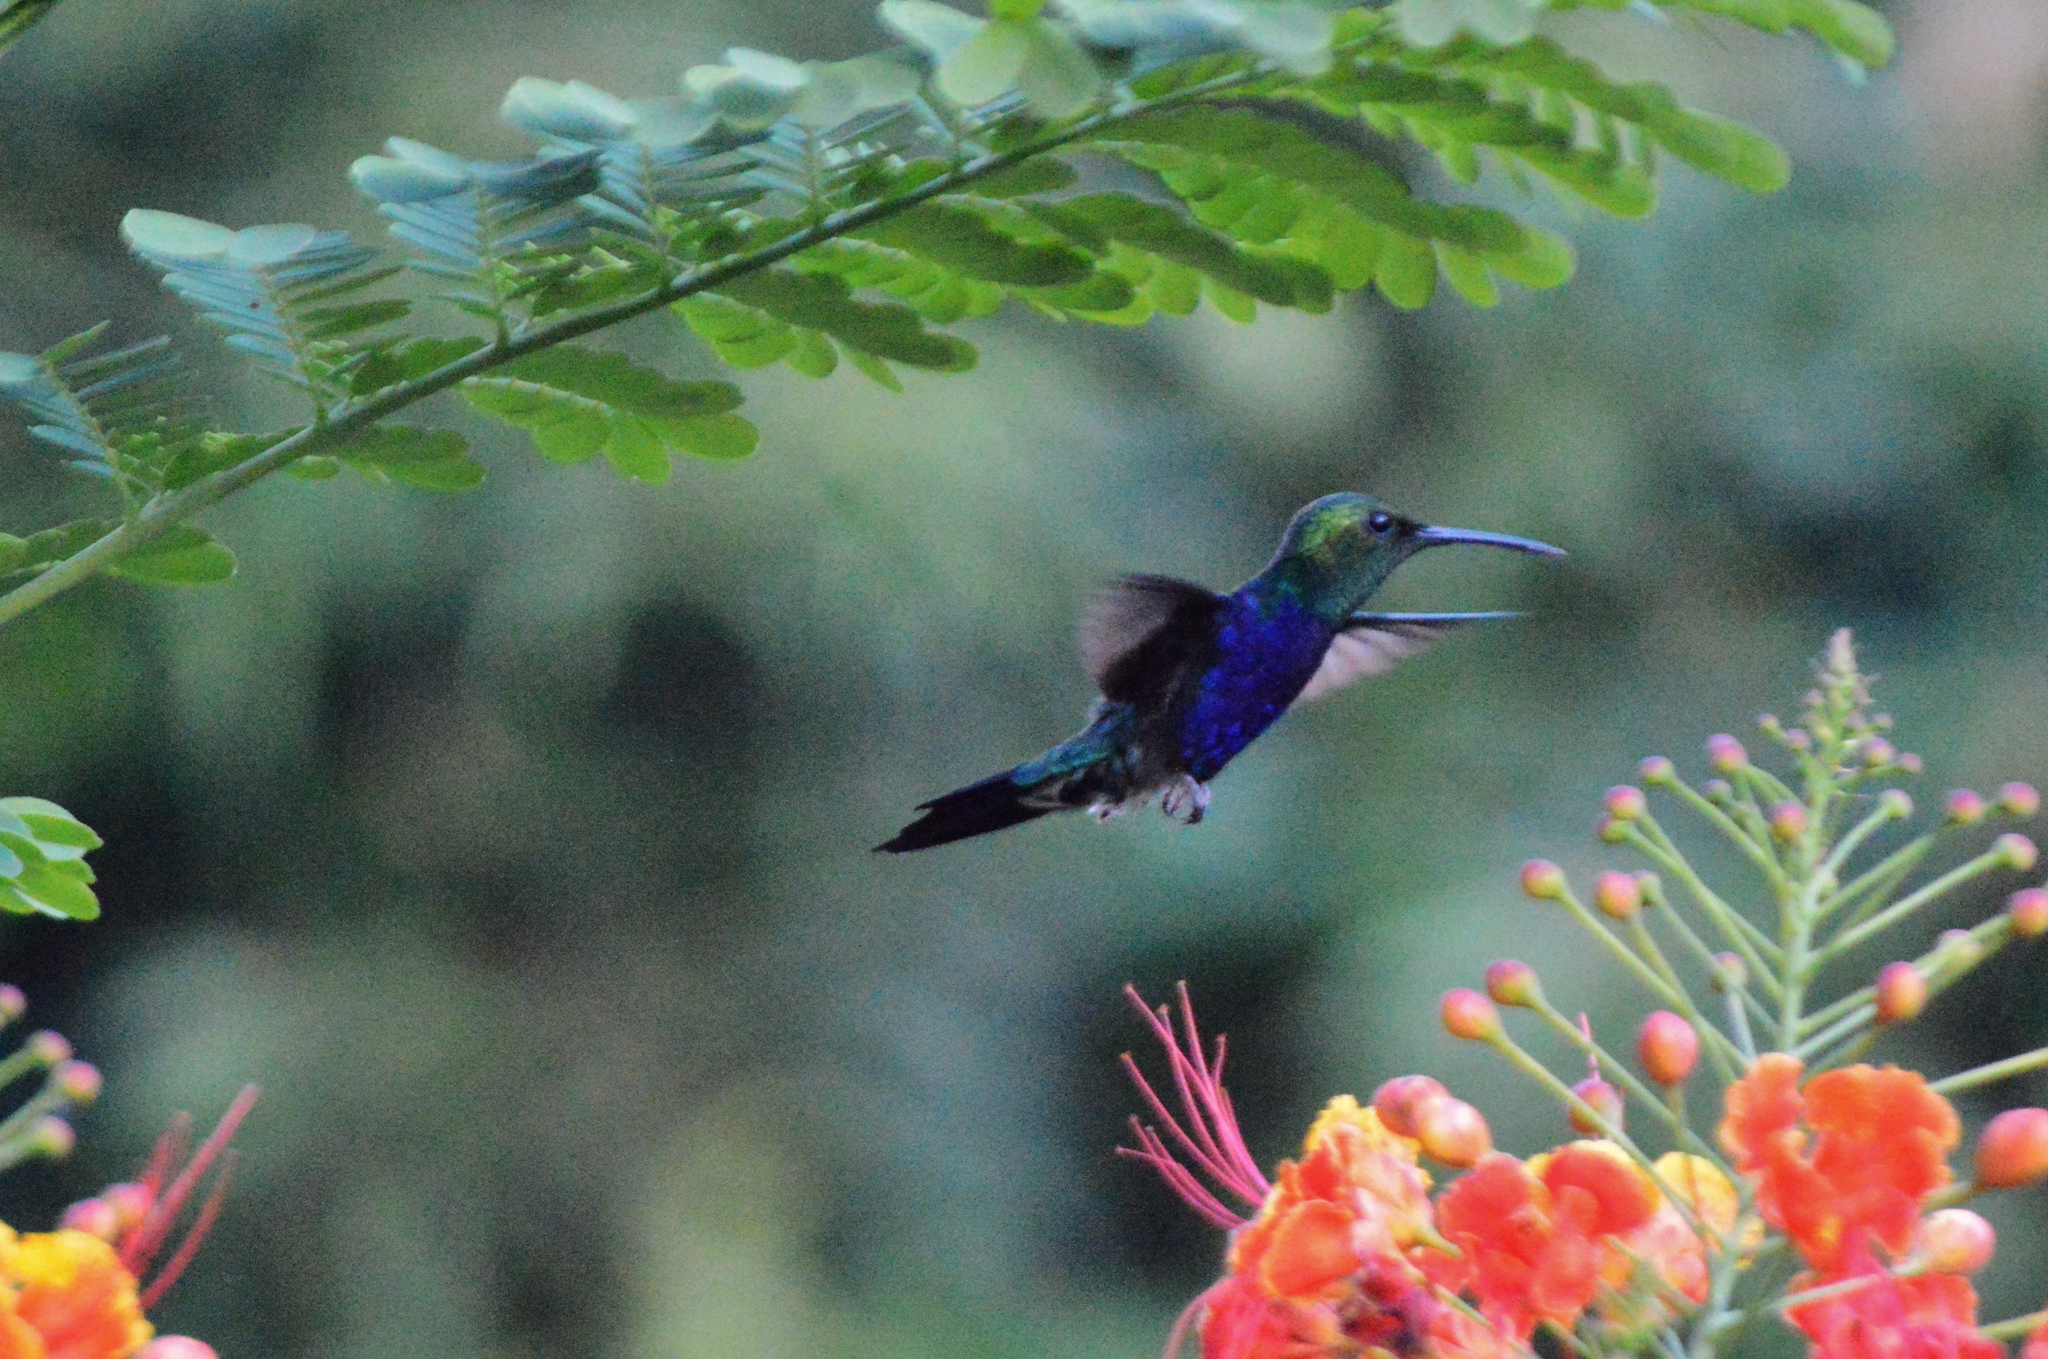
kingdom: Animalia
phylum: Chordata
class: Aves
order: Apodiformes
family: Trochilidae
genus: Thalurania
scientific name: Thalurania furcata
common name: Fork-tailed woodnymph
